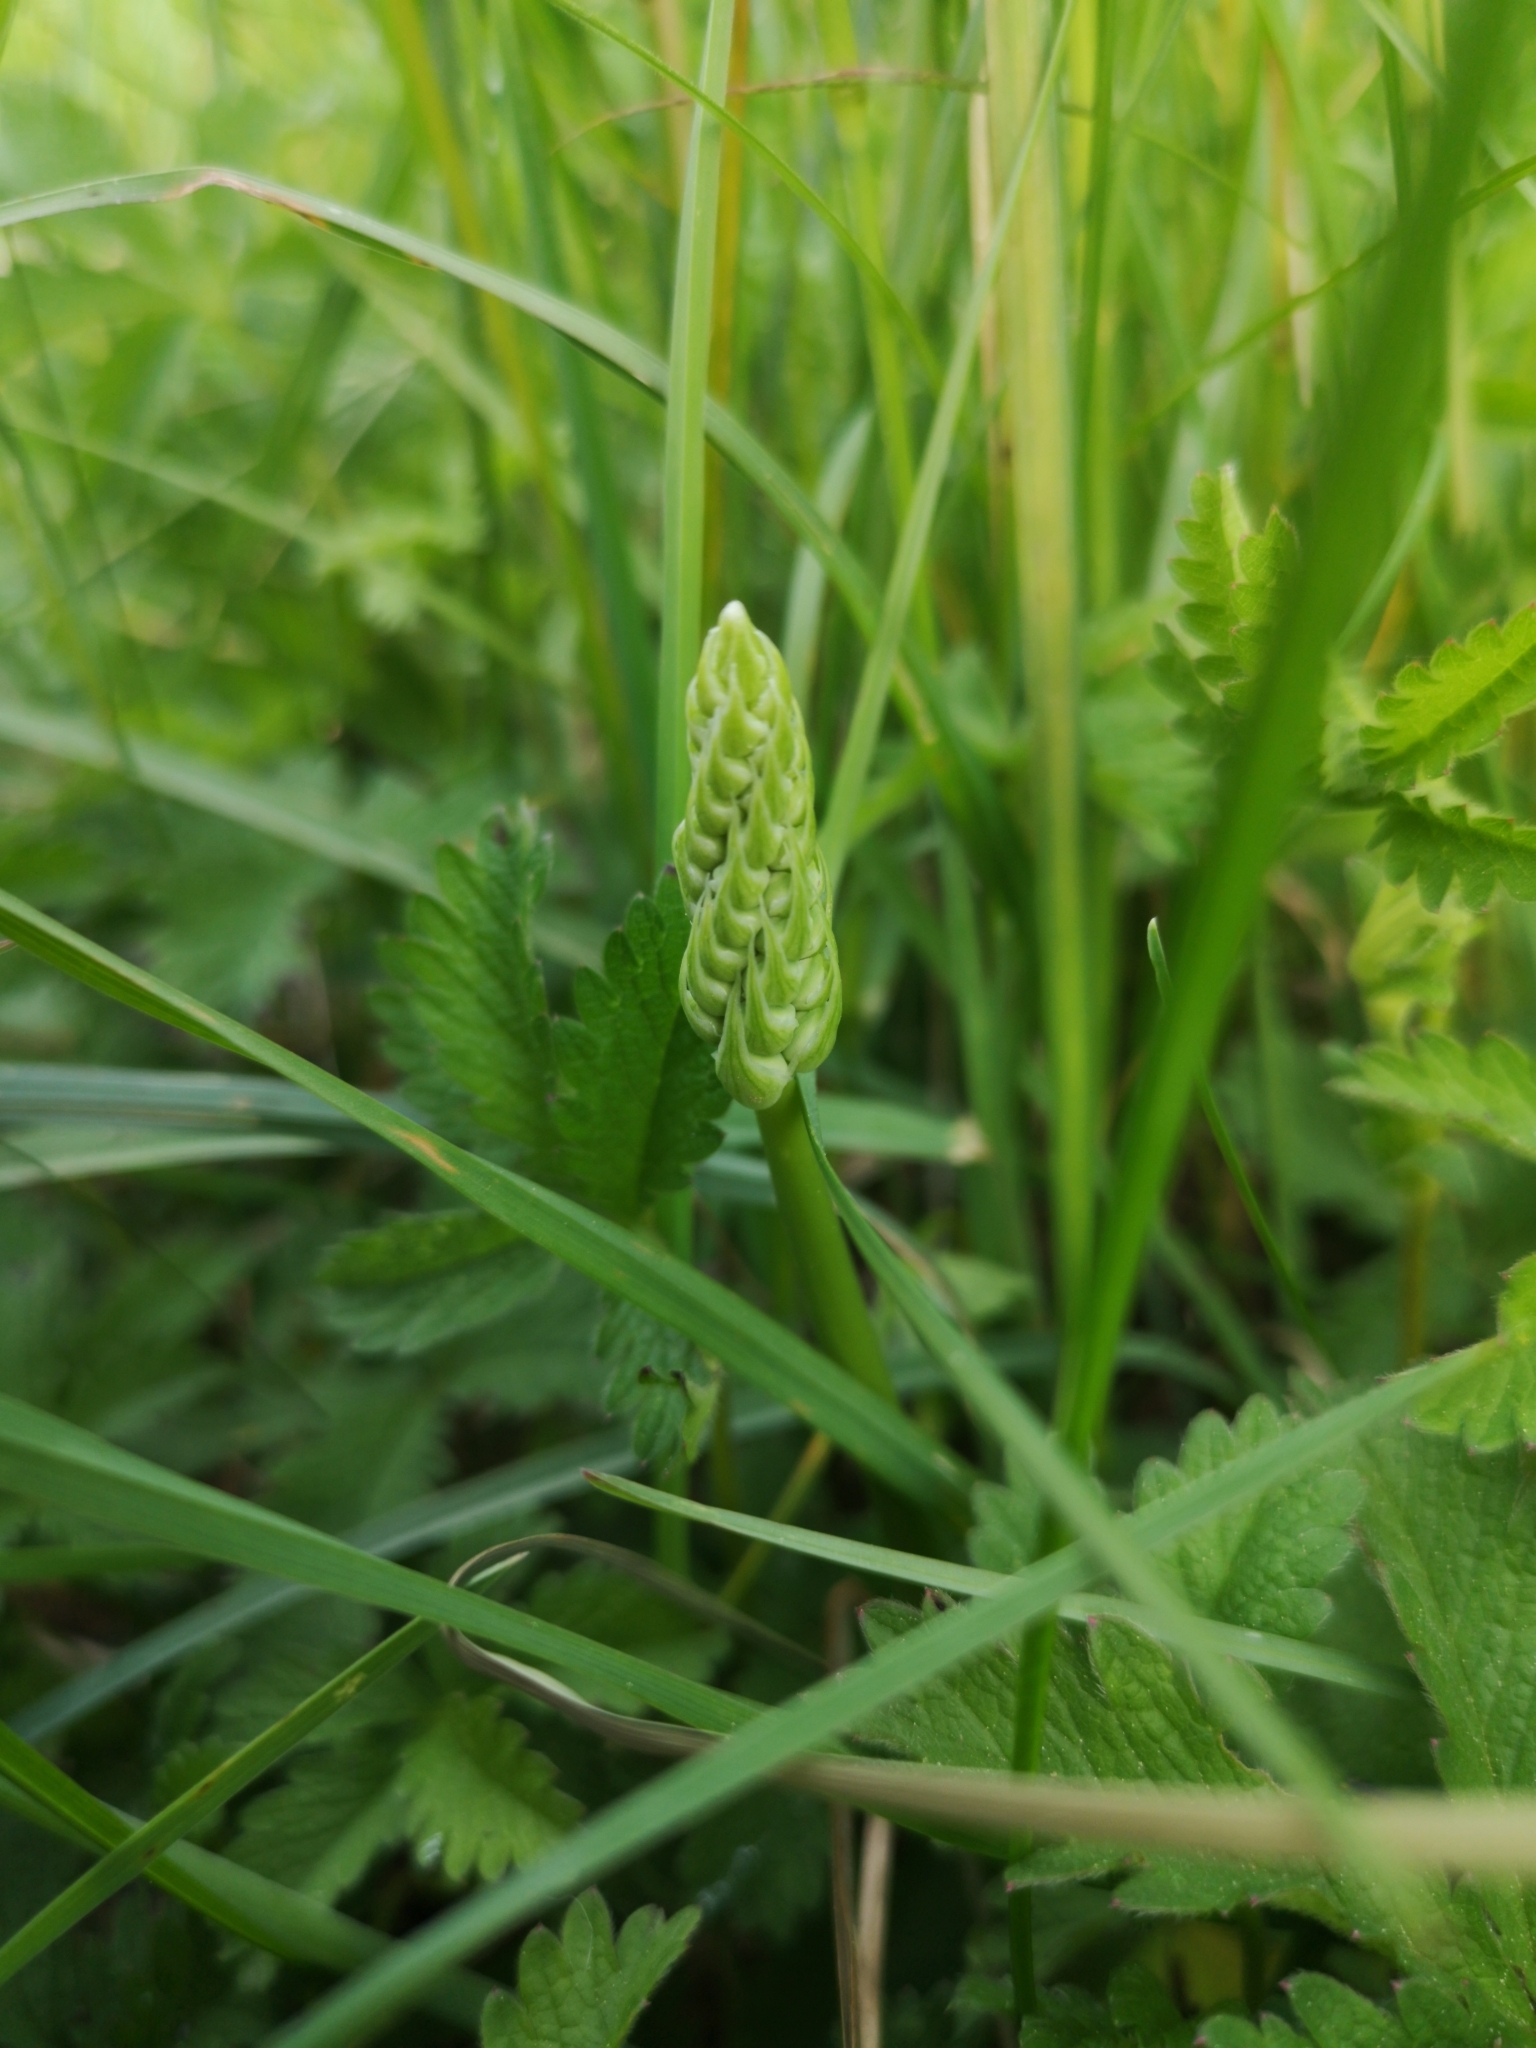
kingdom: Plantae
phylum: Tracheophyta
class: Liliopsida
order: Asparagales
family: Asparagaceae
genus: Ornithogalum
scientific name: Ornithogalum pyrenaicum
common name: Spiked star-of-bethlehem
